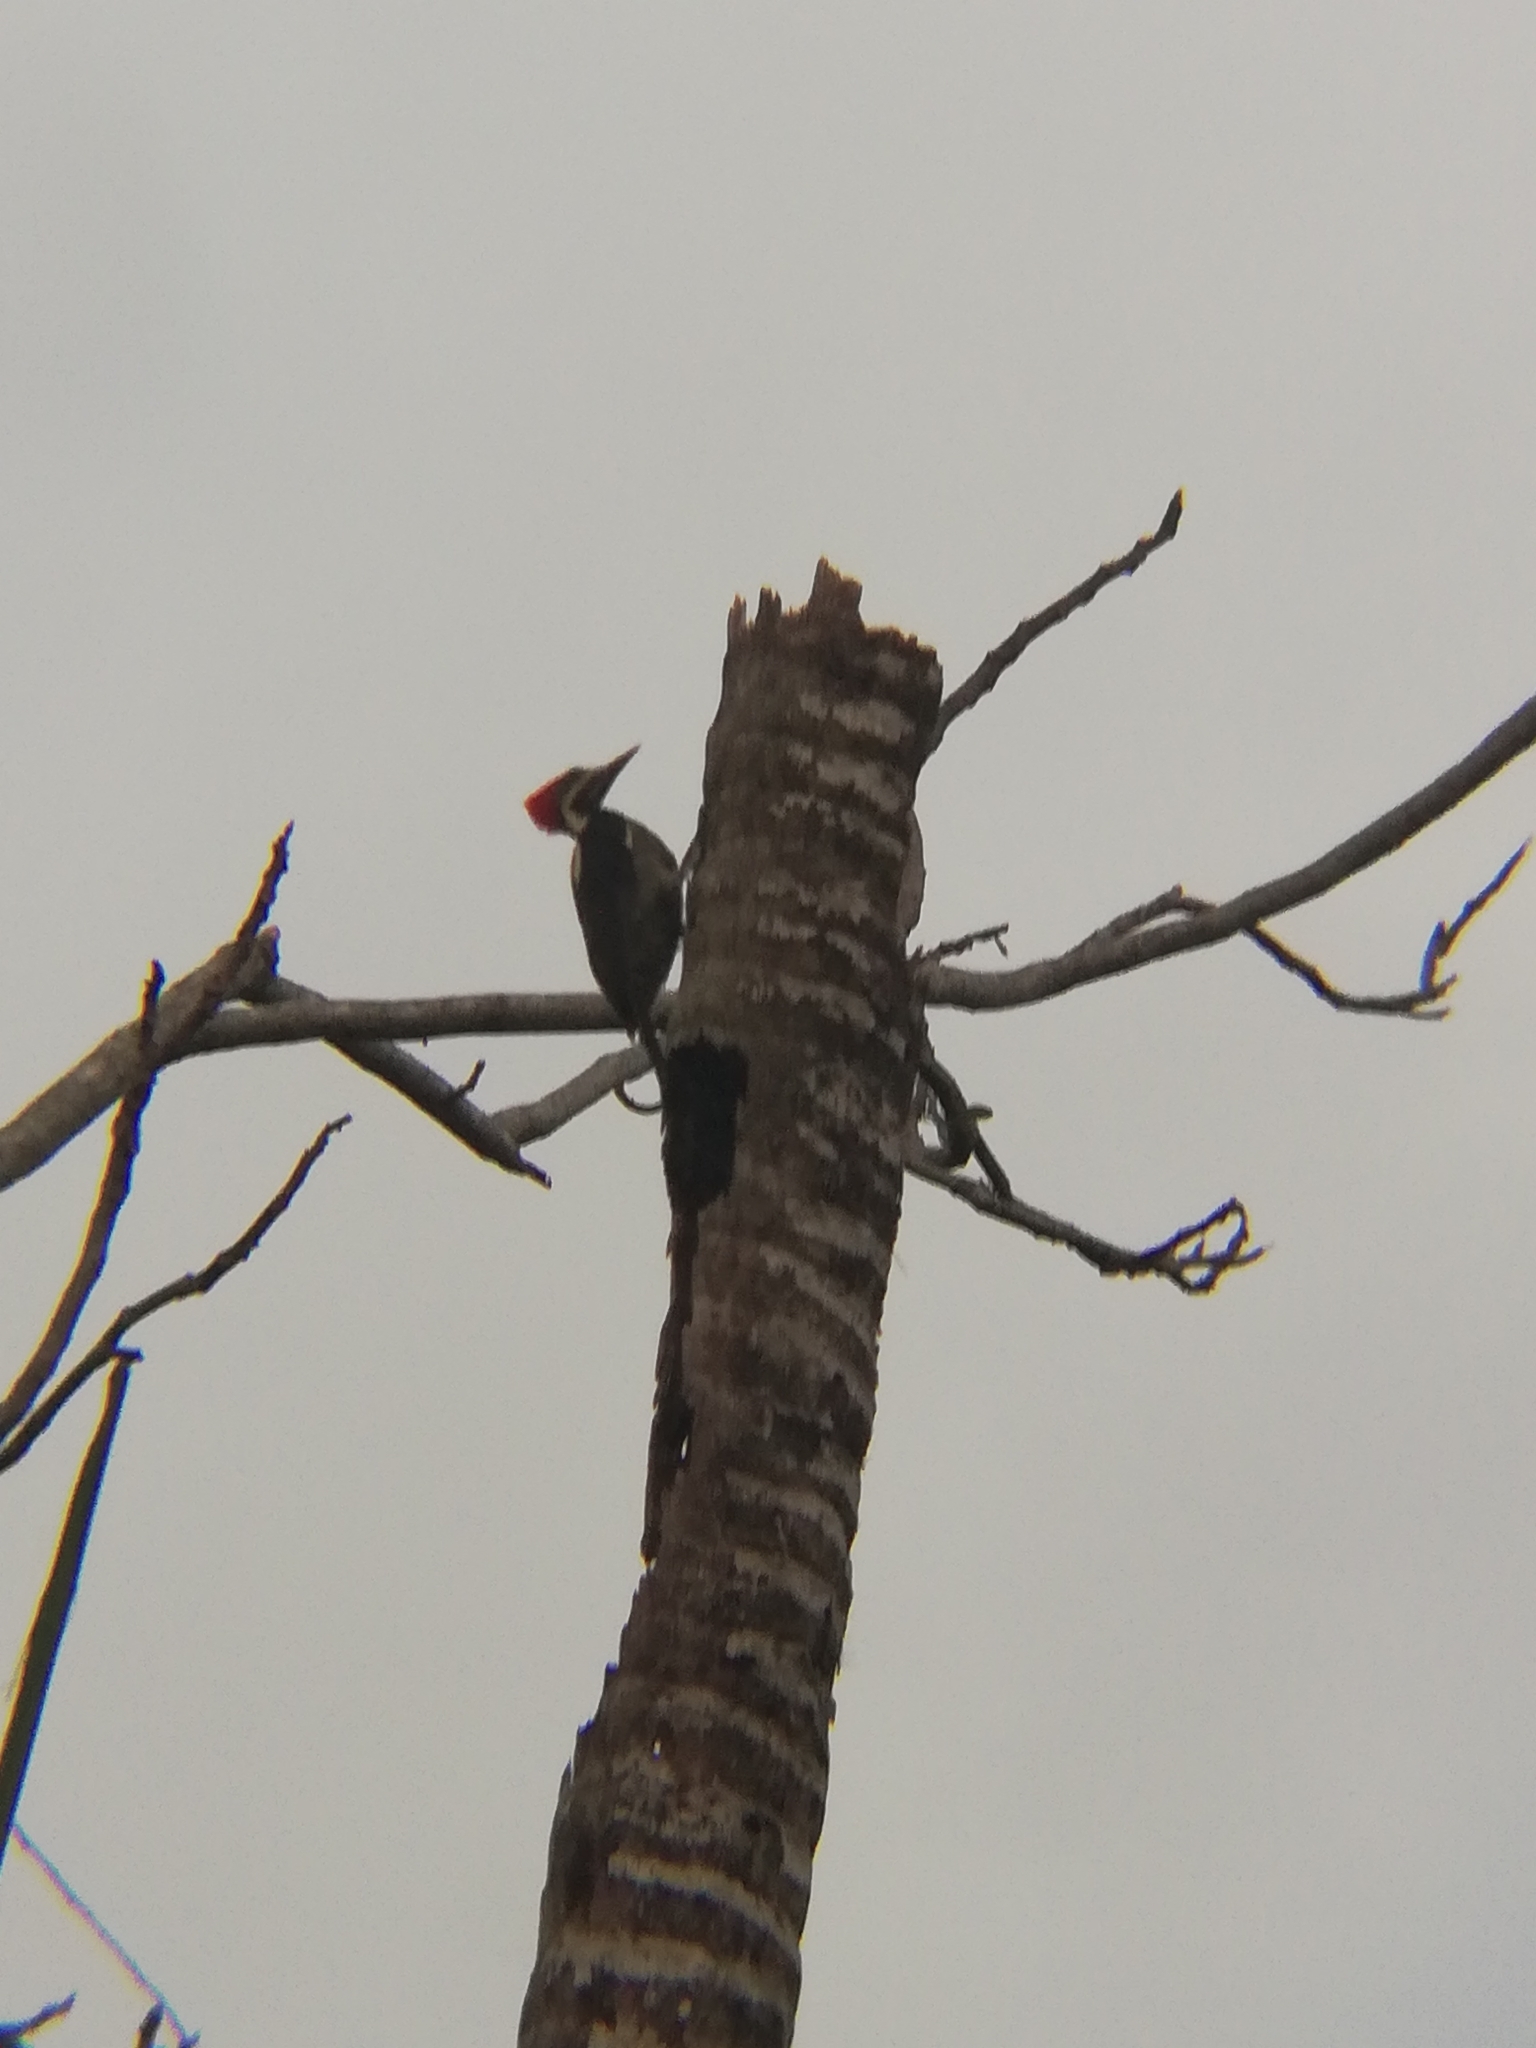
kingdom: Animalia
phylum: Chordata
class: Aves
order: Piciformes
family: Picidae
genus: Dryocopus
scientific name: Dryocopus lineatus
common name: Lineated woodpecker
